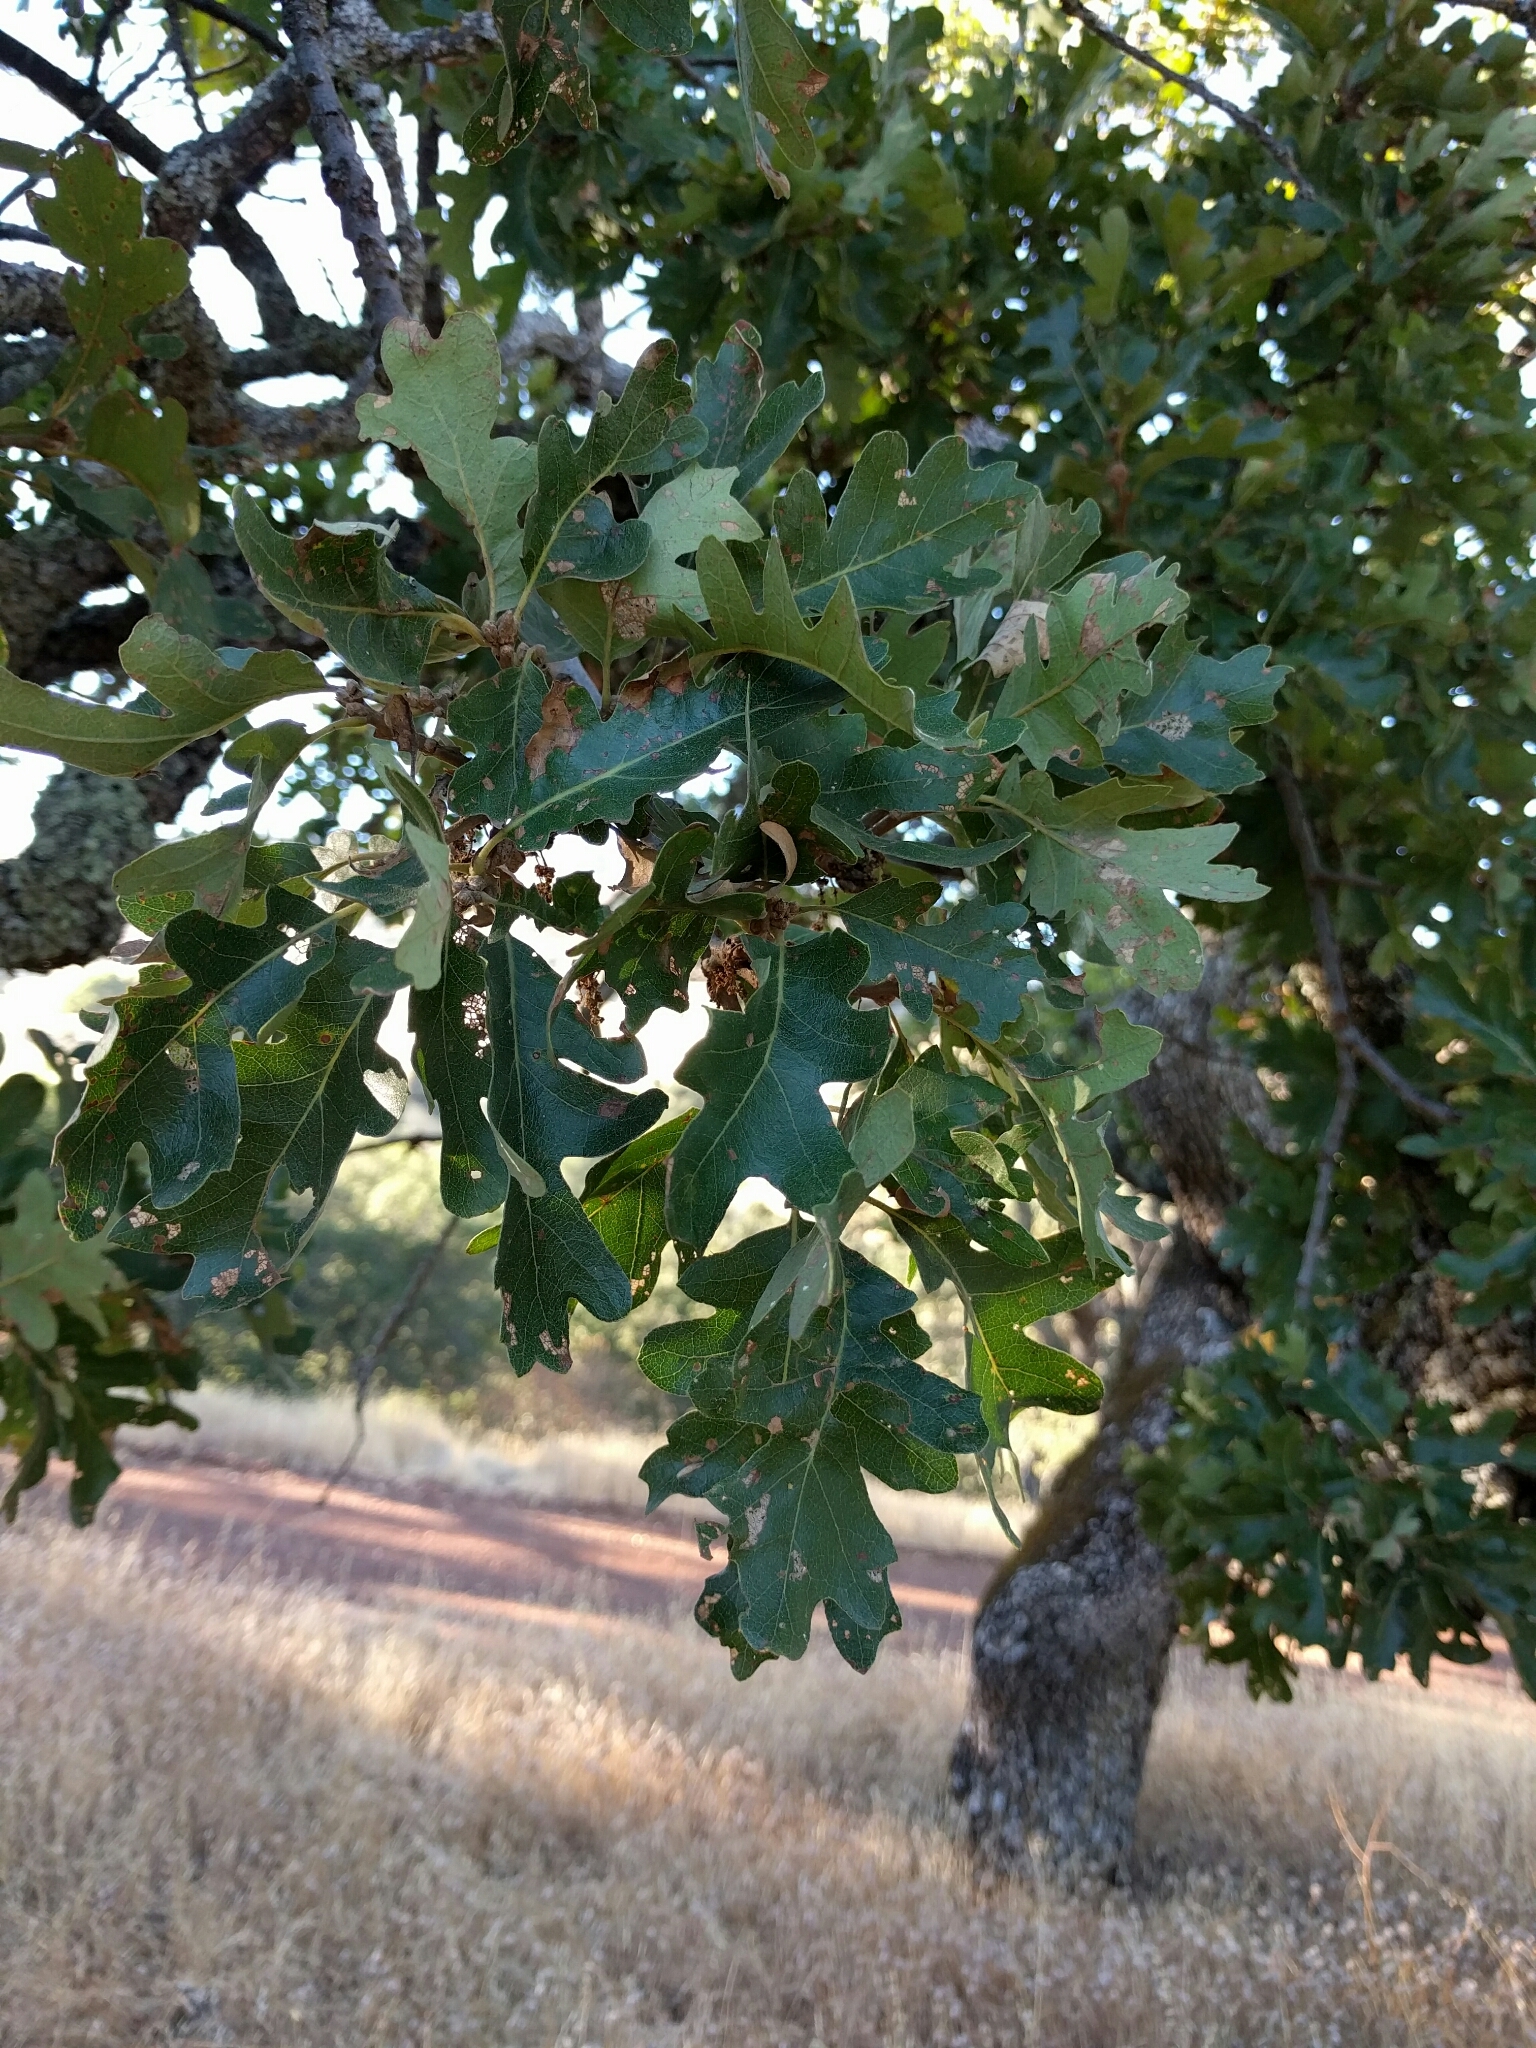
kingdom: Plantae
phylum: Tracheophyta
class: Magnoliopsida
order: Fagales
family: Fagaceae
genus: Quercus
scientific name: Quercus lobata
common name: Valley oak
